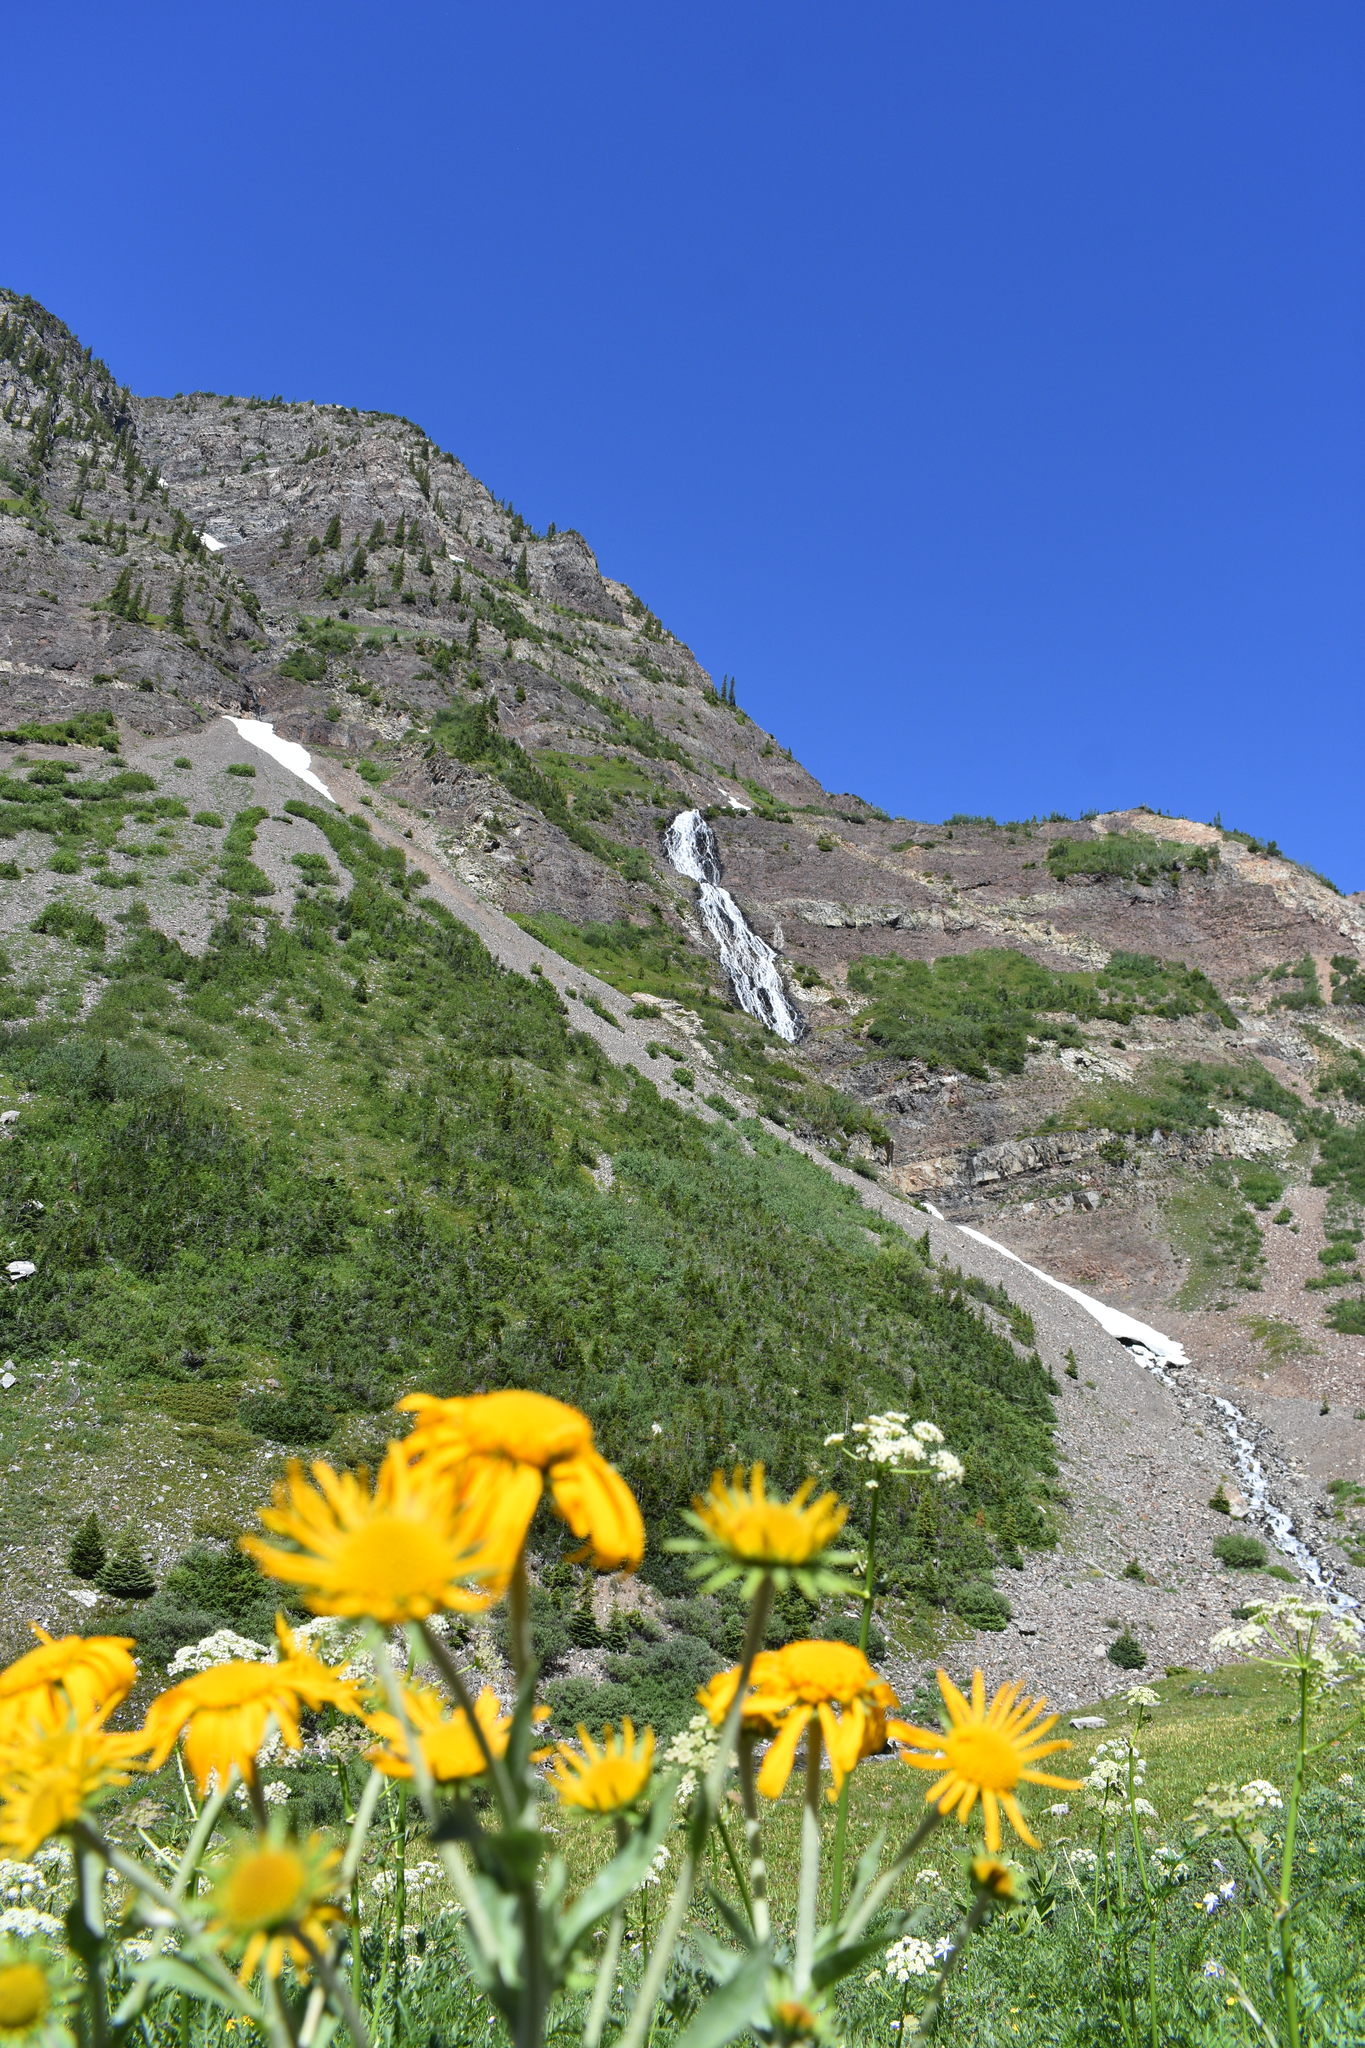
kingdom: Plantae
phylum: Tracheophyta
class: Magnoliopsida
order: Asterales
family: Asteraceae
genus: Hymenoxys
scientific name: Hymenoxys hoopesii
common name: Orange-sneezeweed
